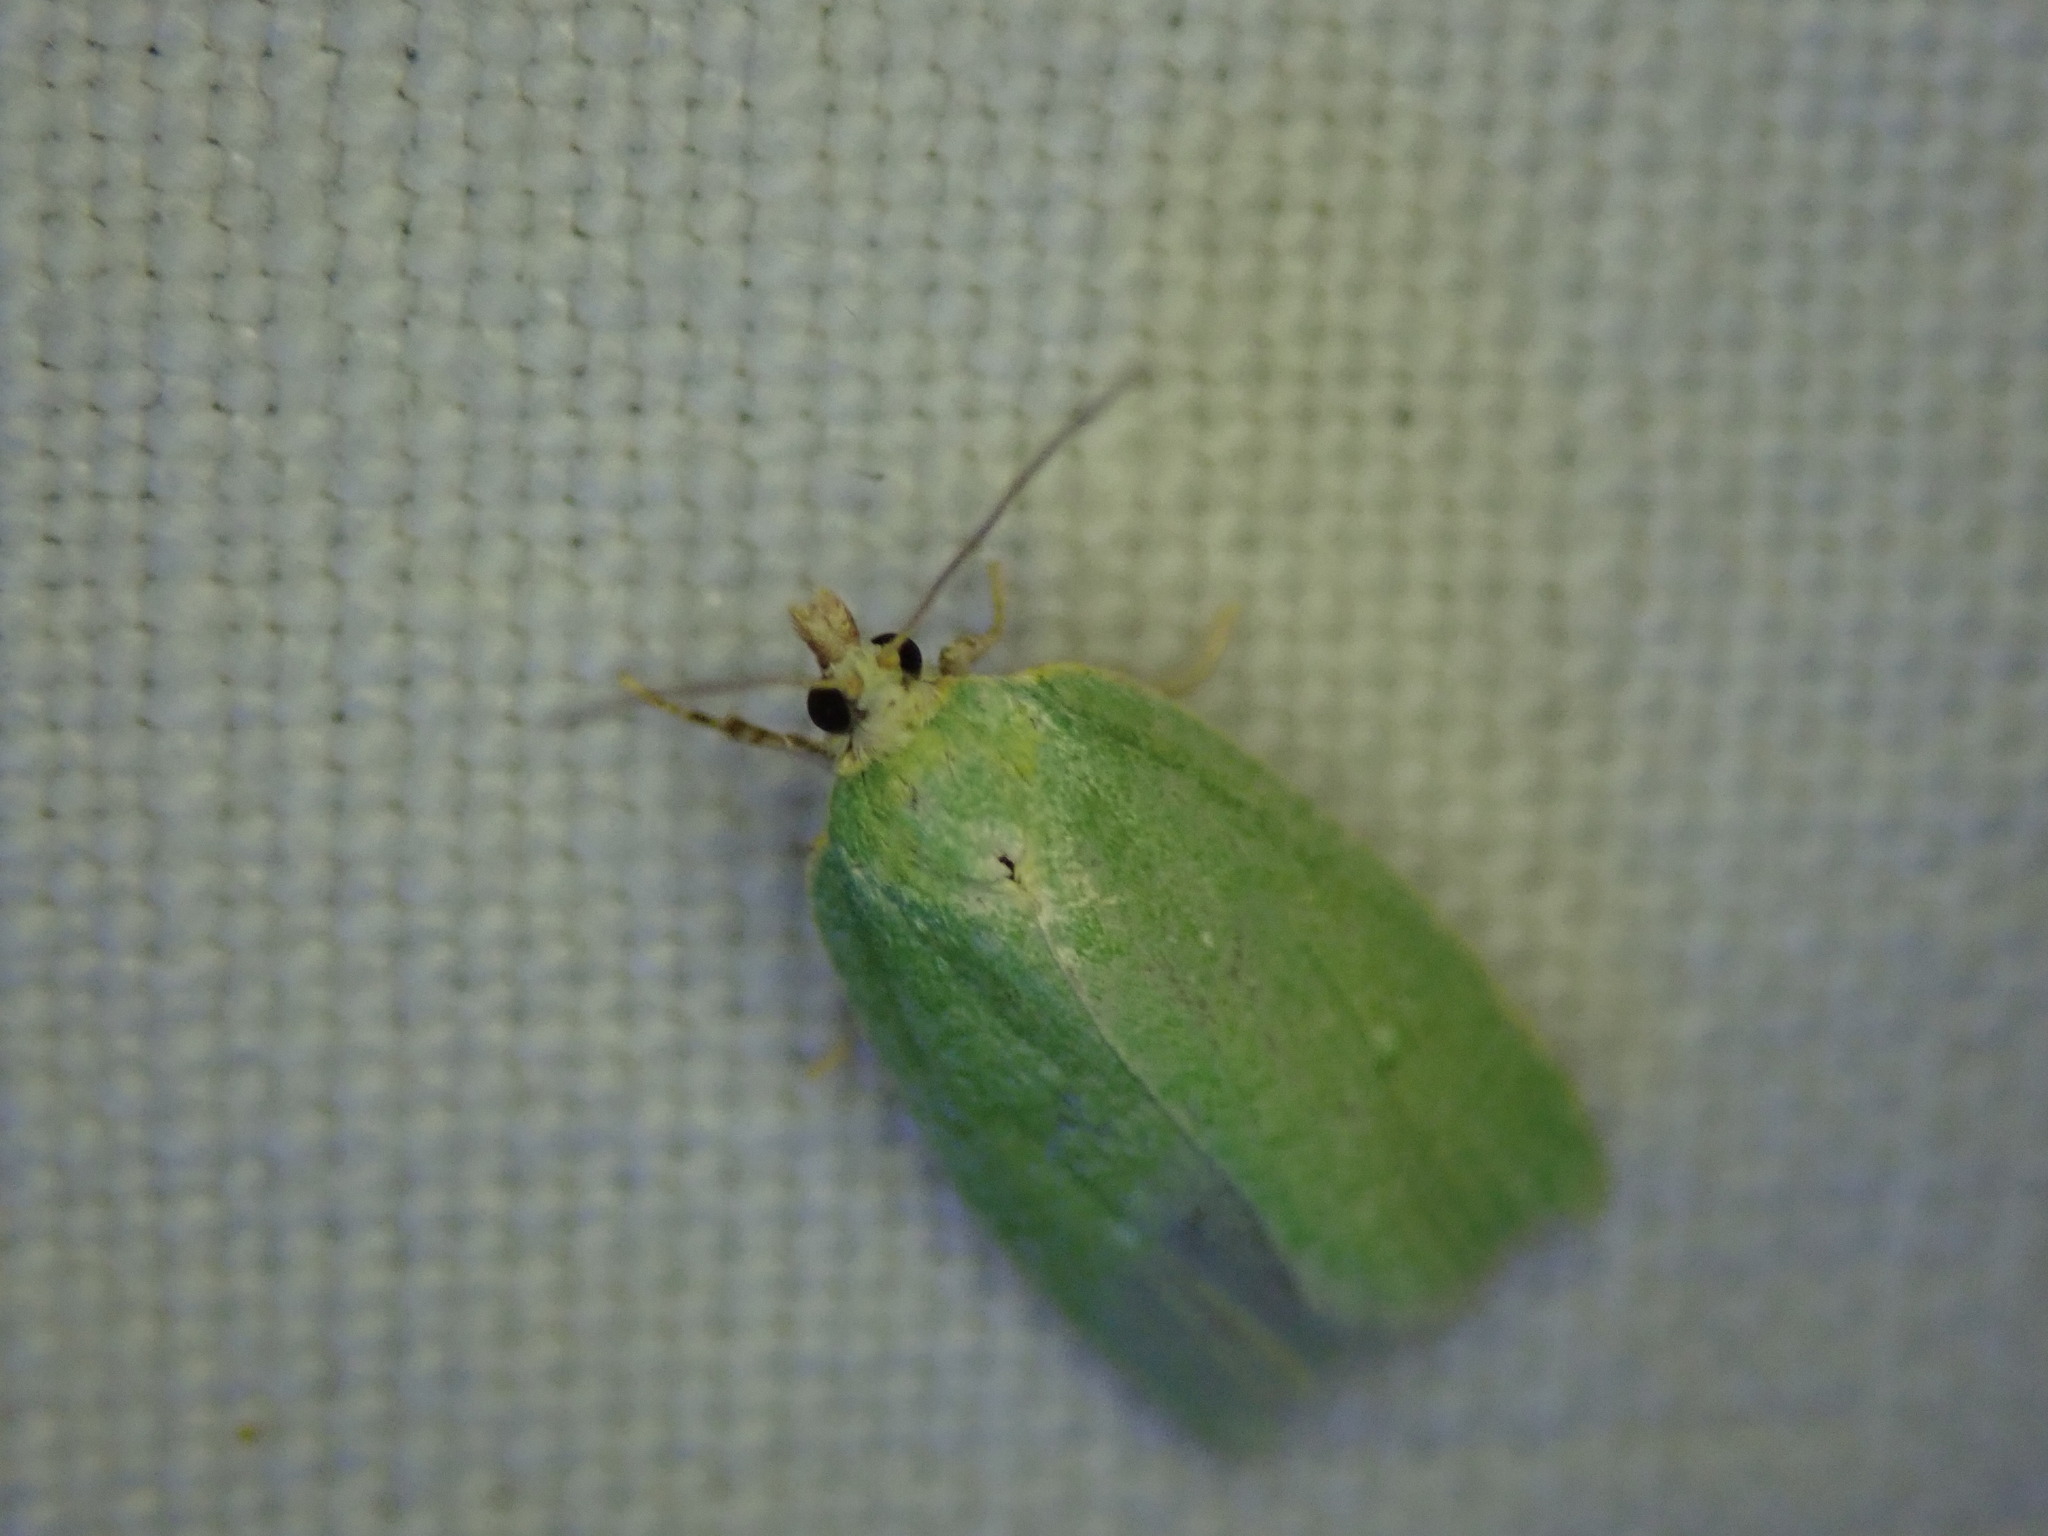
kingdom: Animalia
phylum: Arthropoda
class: Insecta
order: Lepidoptera
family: Tortricidae
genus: Tortrix
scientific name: Tortrix viridana
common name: Green oak tortrix
